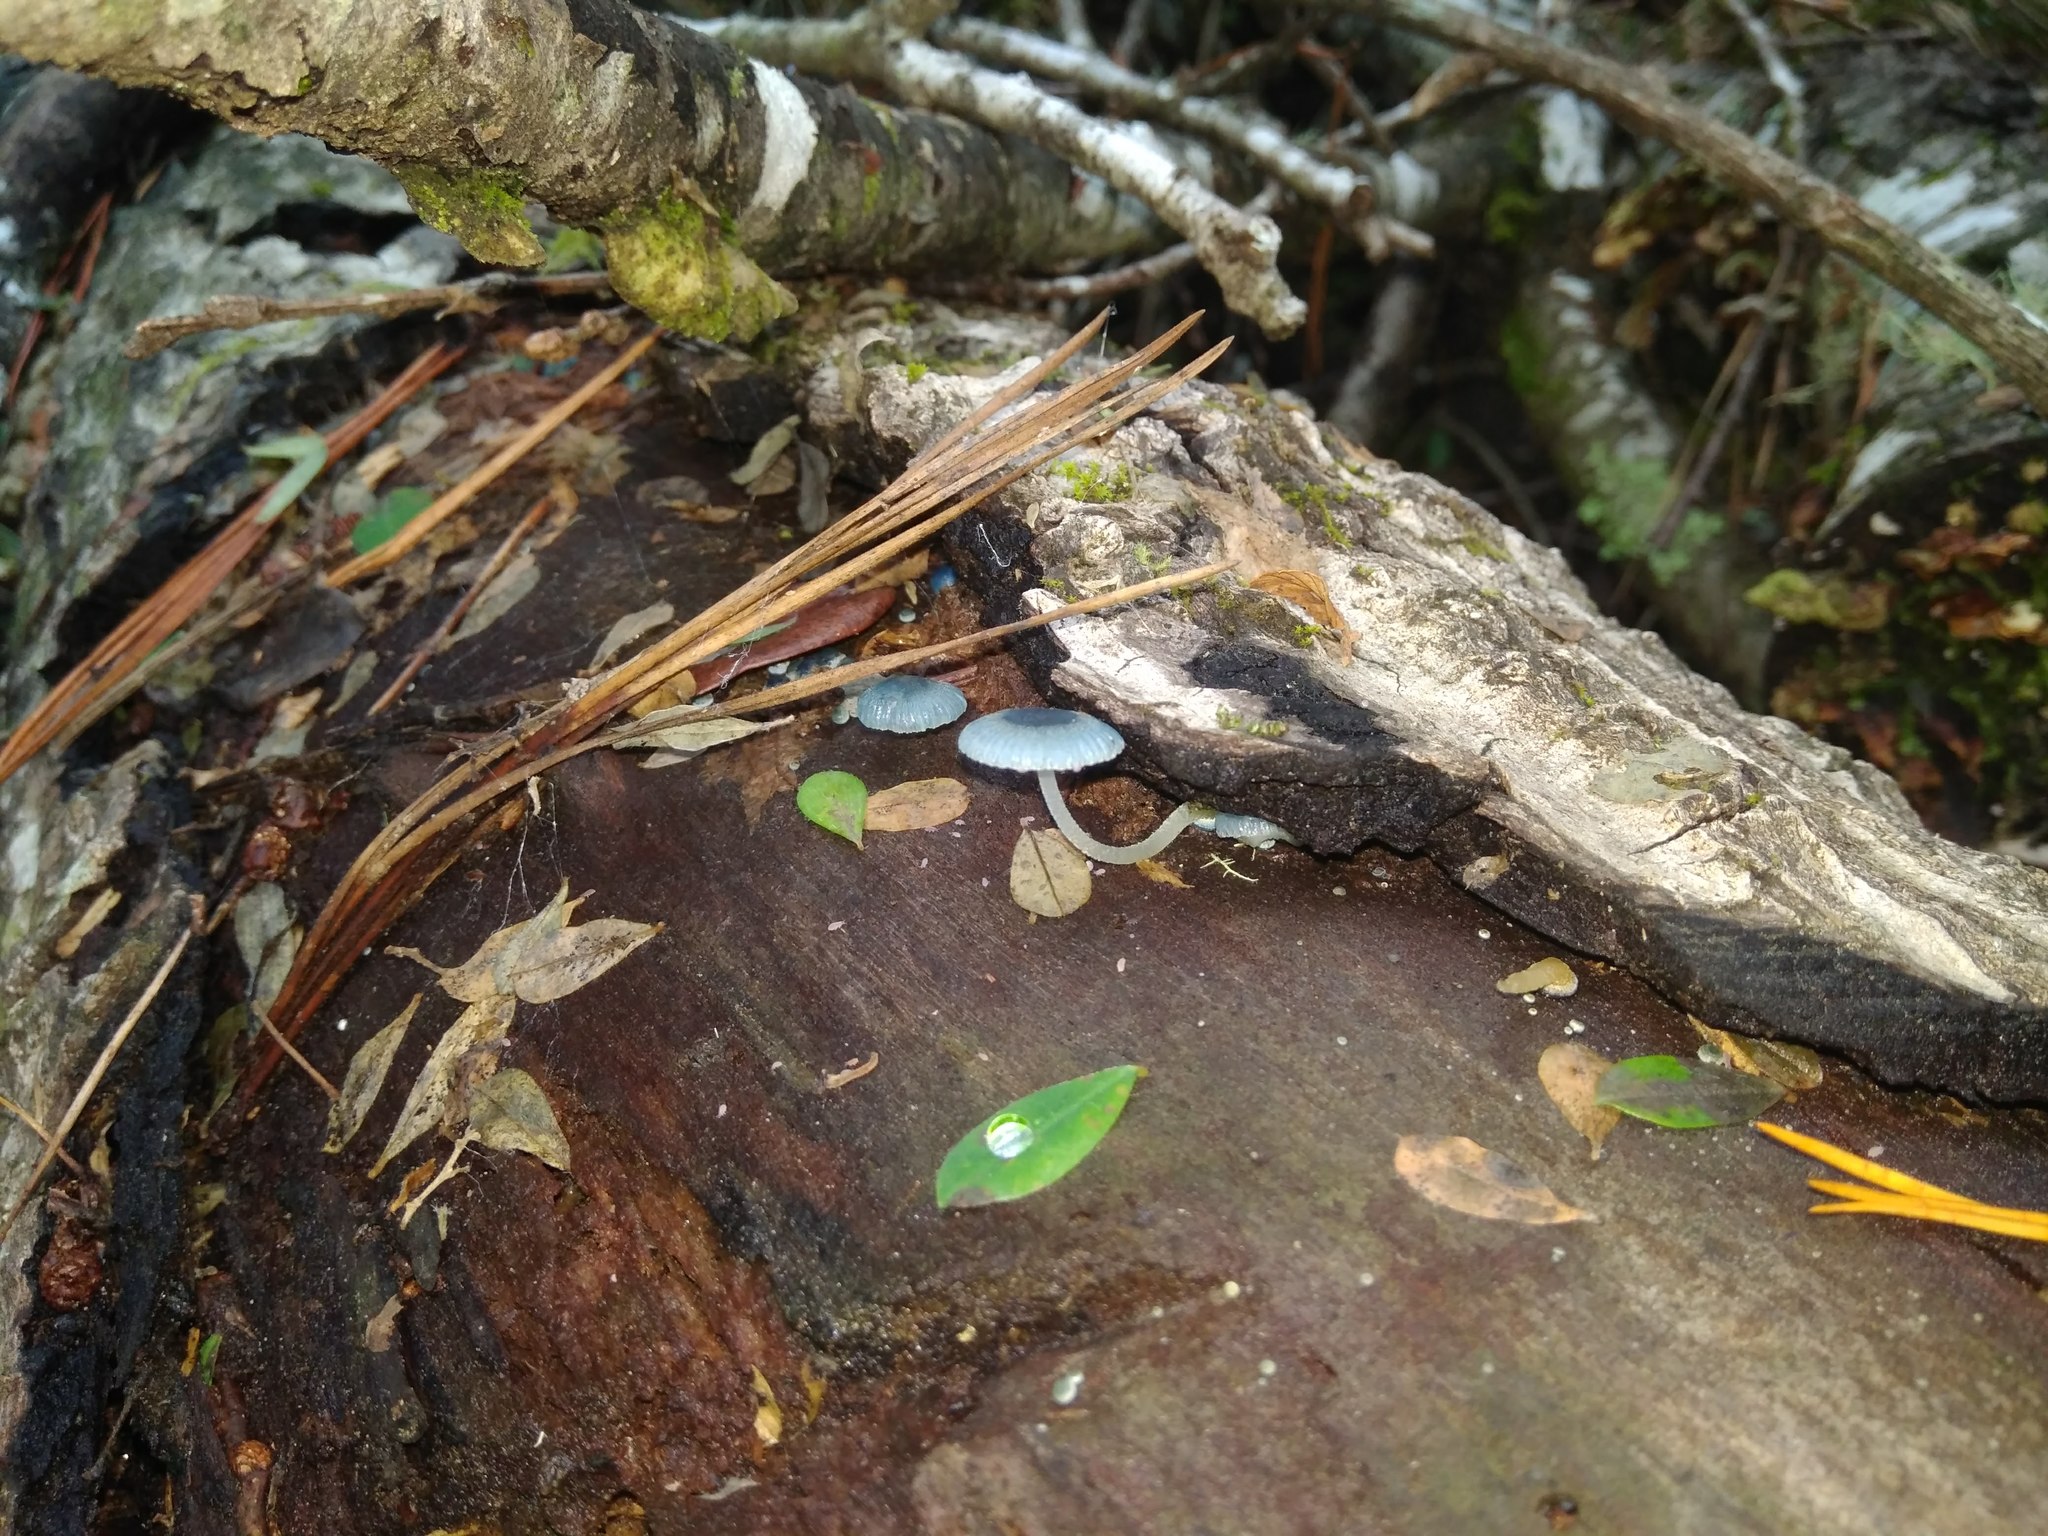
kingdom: Fungi
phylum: Basidiomycota
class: Agaricomycetes
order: Agaricales
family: Mycenaceae
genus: Mycena
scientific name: Mycena cyanocephala
